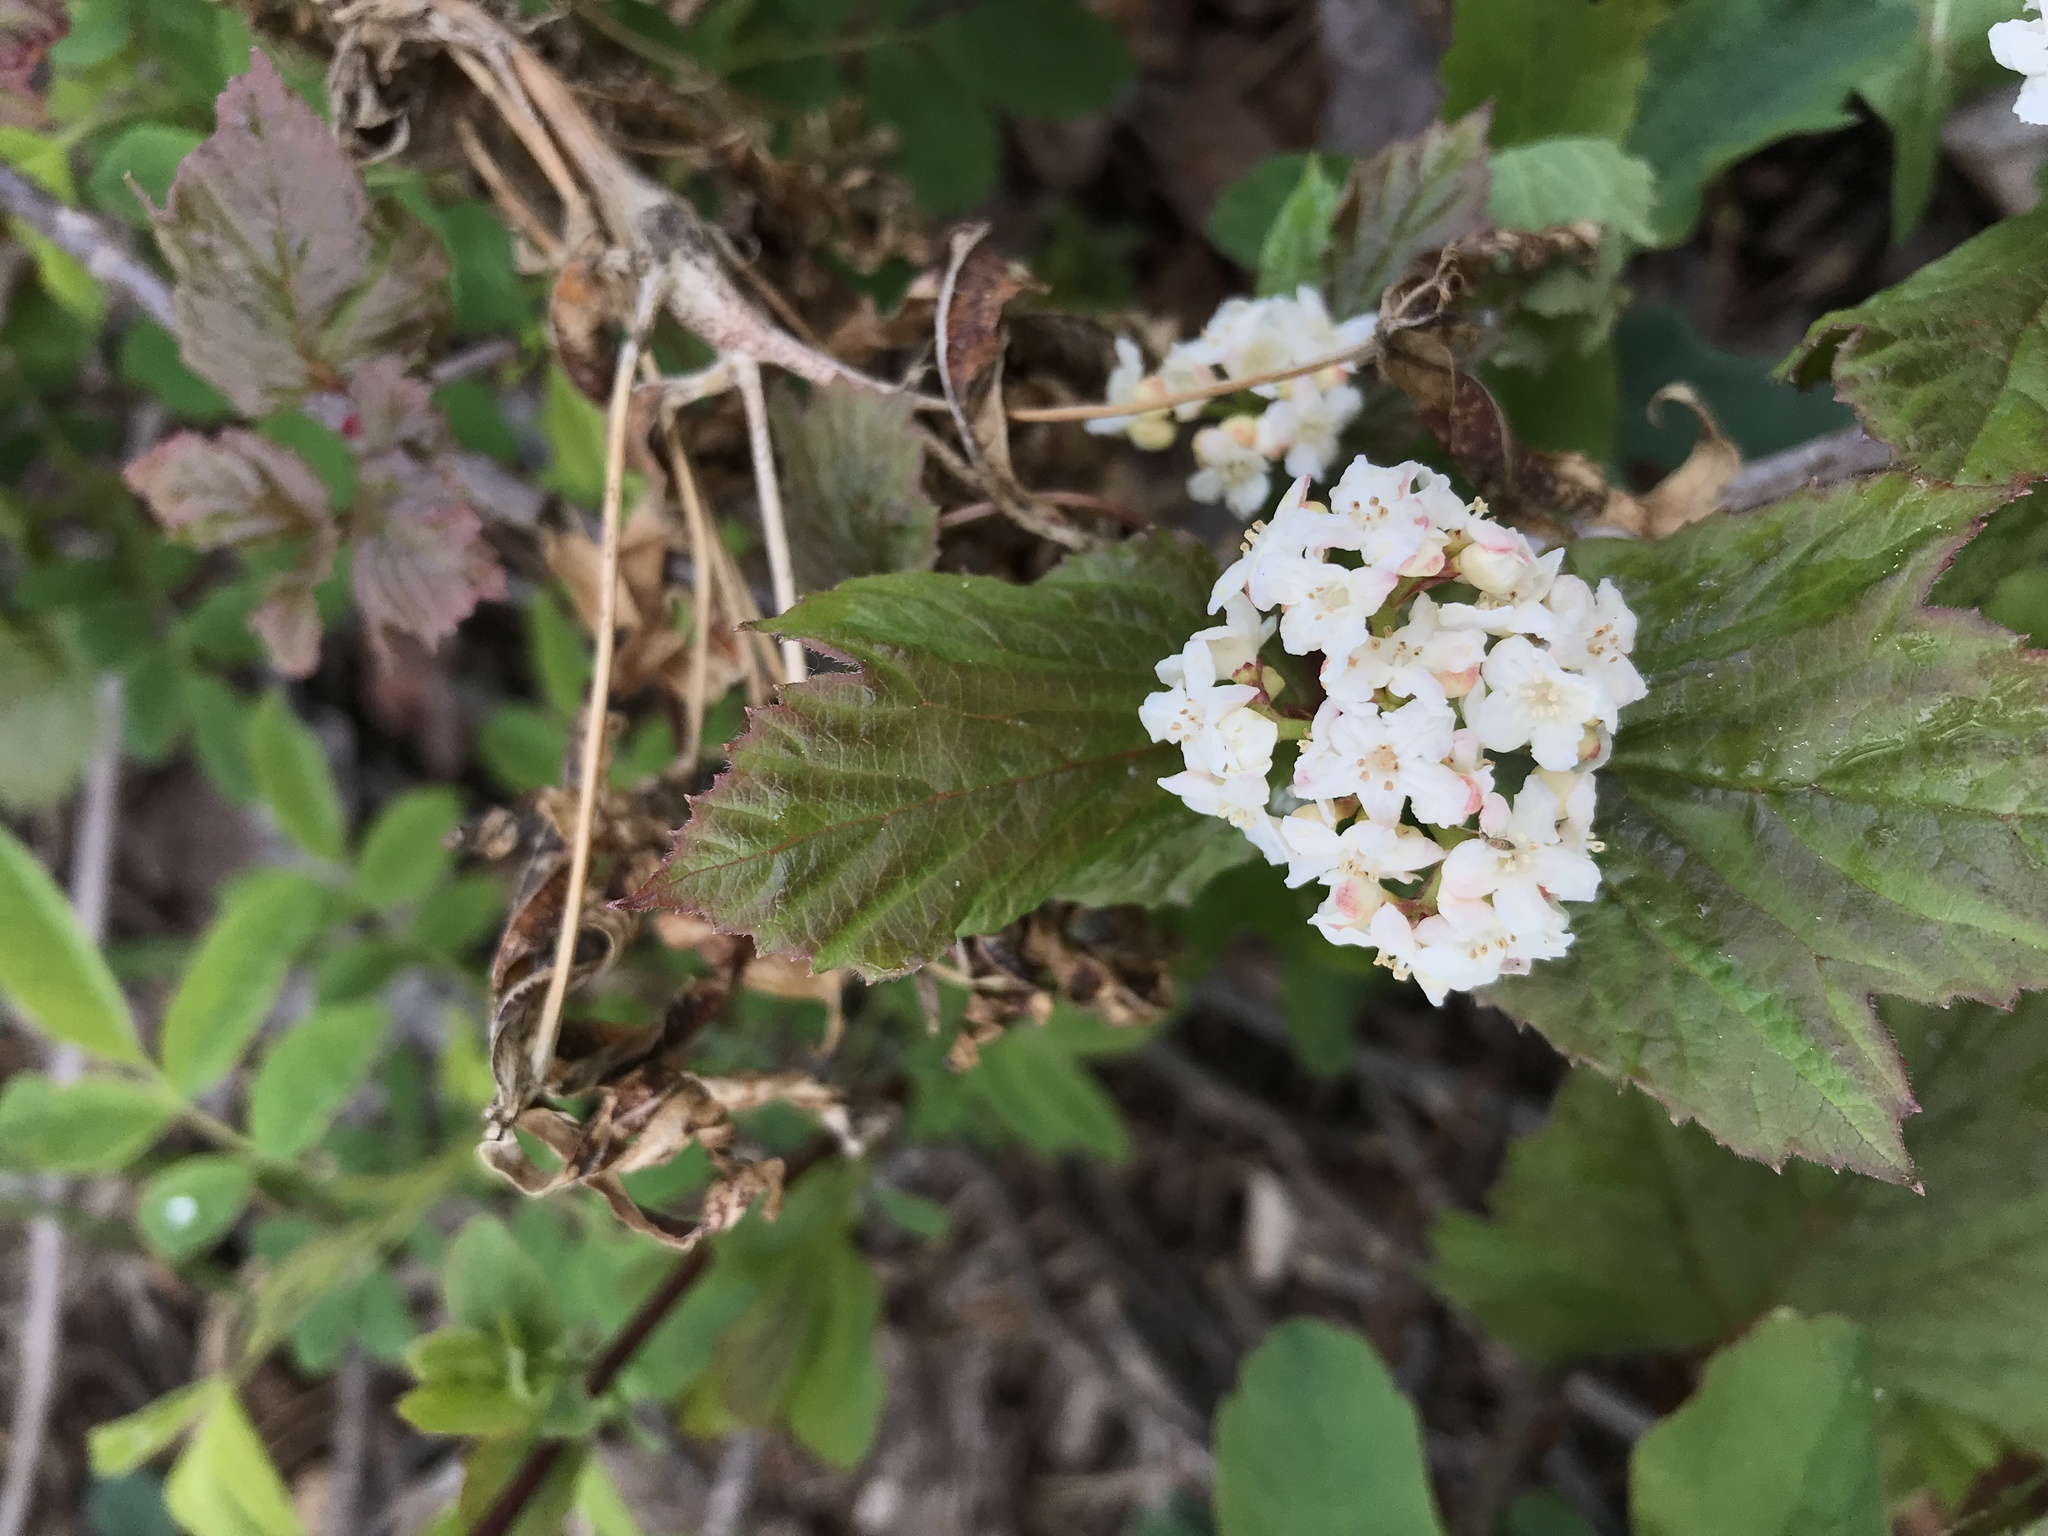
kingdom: Plantae
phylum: Tracheophyta
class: Magnoliopsida
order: Dipsacales
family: Viburnaceae
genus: Viburnum
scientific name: Viburnum opulus
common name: Guelder-rose
